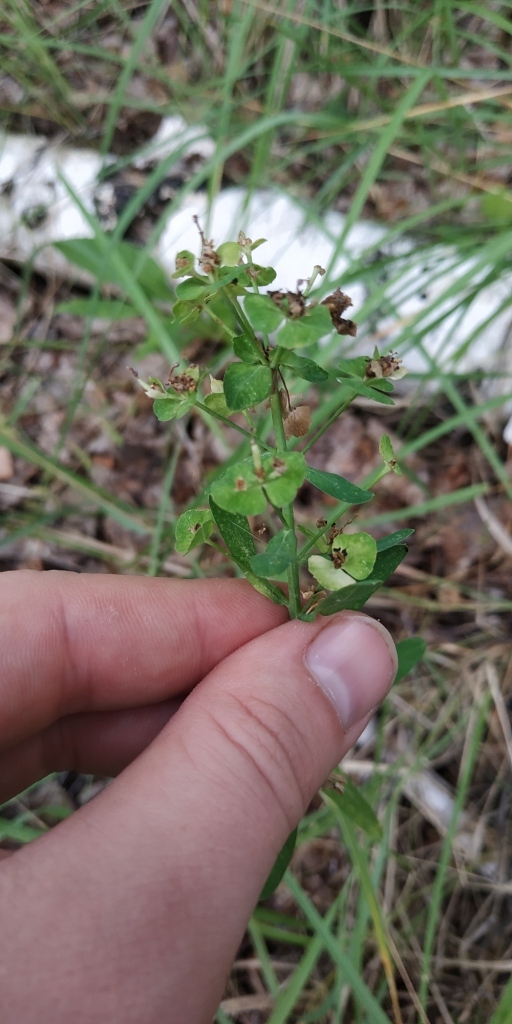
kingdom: Plantae
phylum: Tracheophyta
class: Magnoliopsida
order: Malpighiales
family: Euphorbiaceae
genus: Euphorbia
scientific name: Euphorbia borealis
